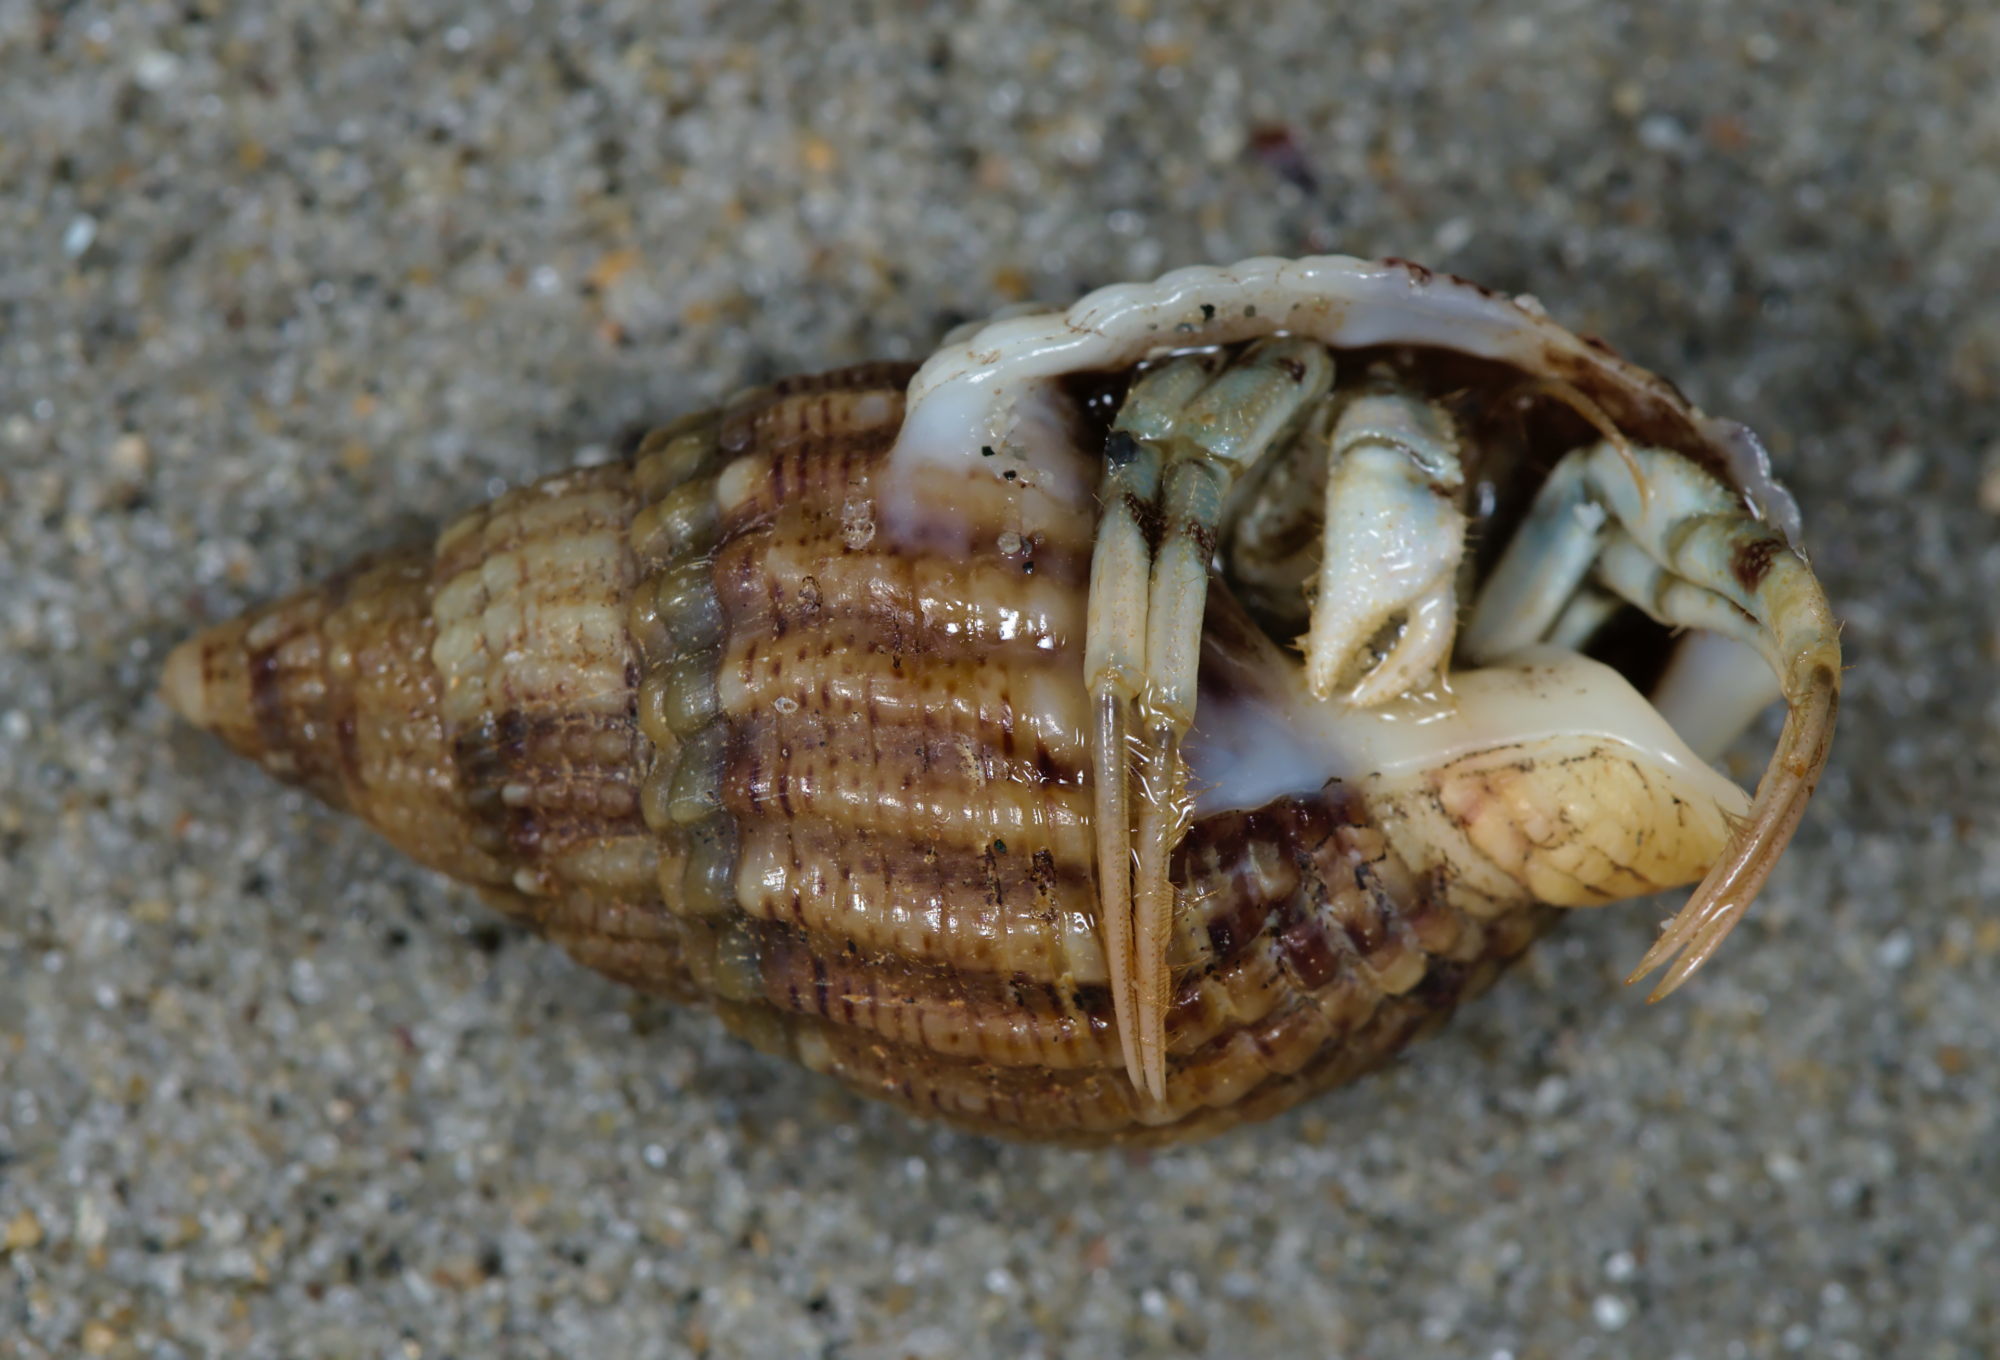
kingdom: Animalia
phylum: Arthropoda
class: Malacostraca
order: Decapoda
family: Diogenidae
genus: Diogenes
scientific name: Diogenes pugilator
